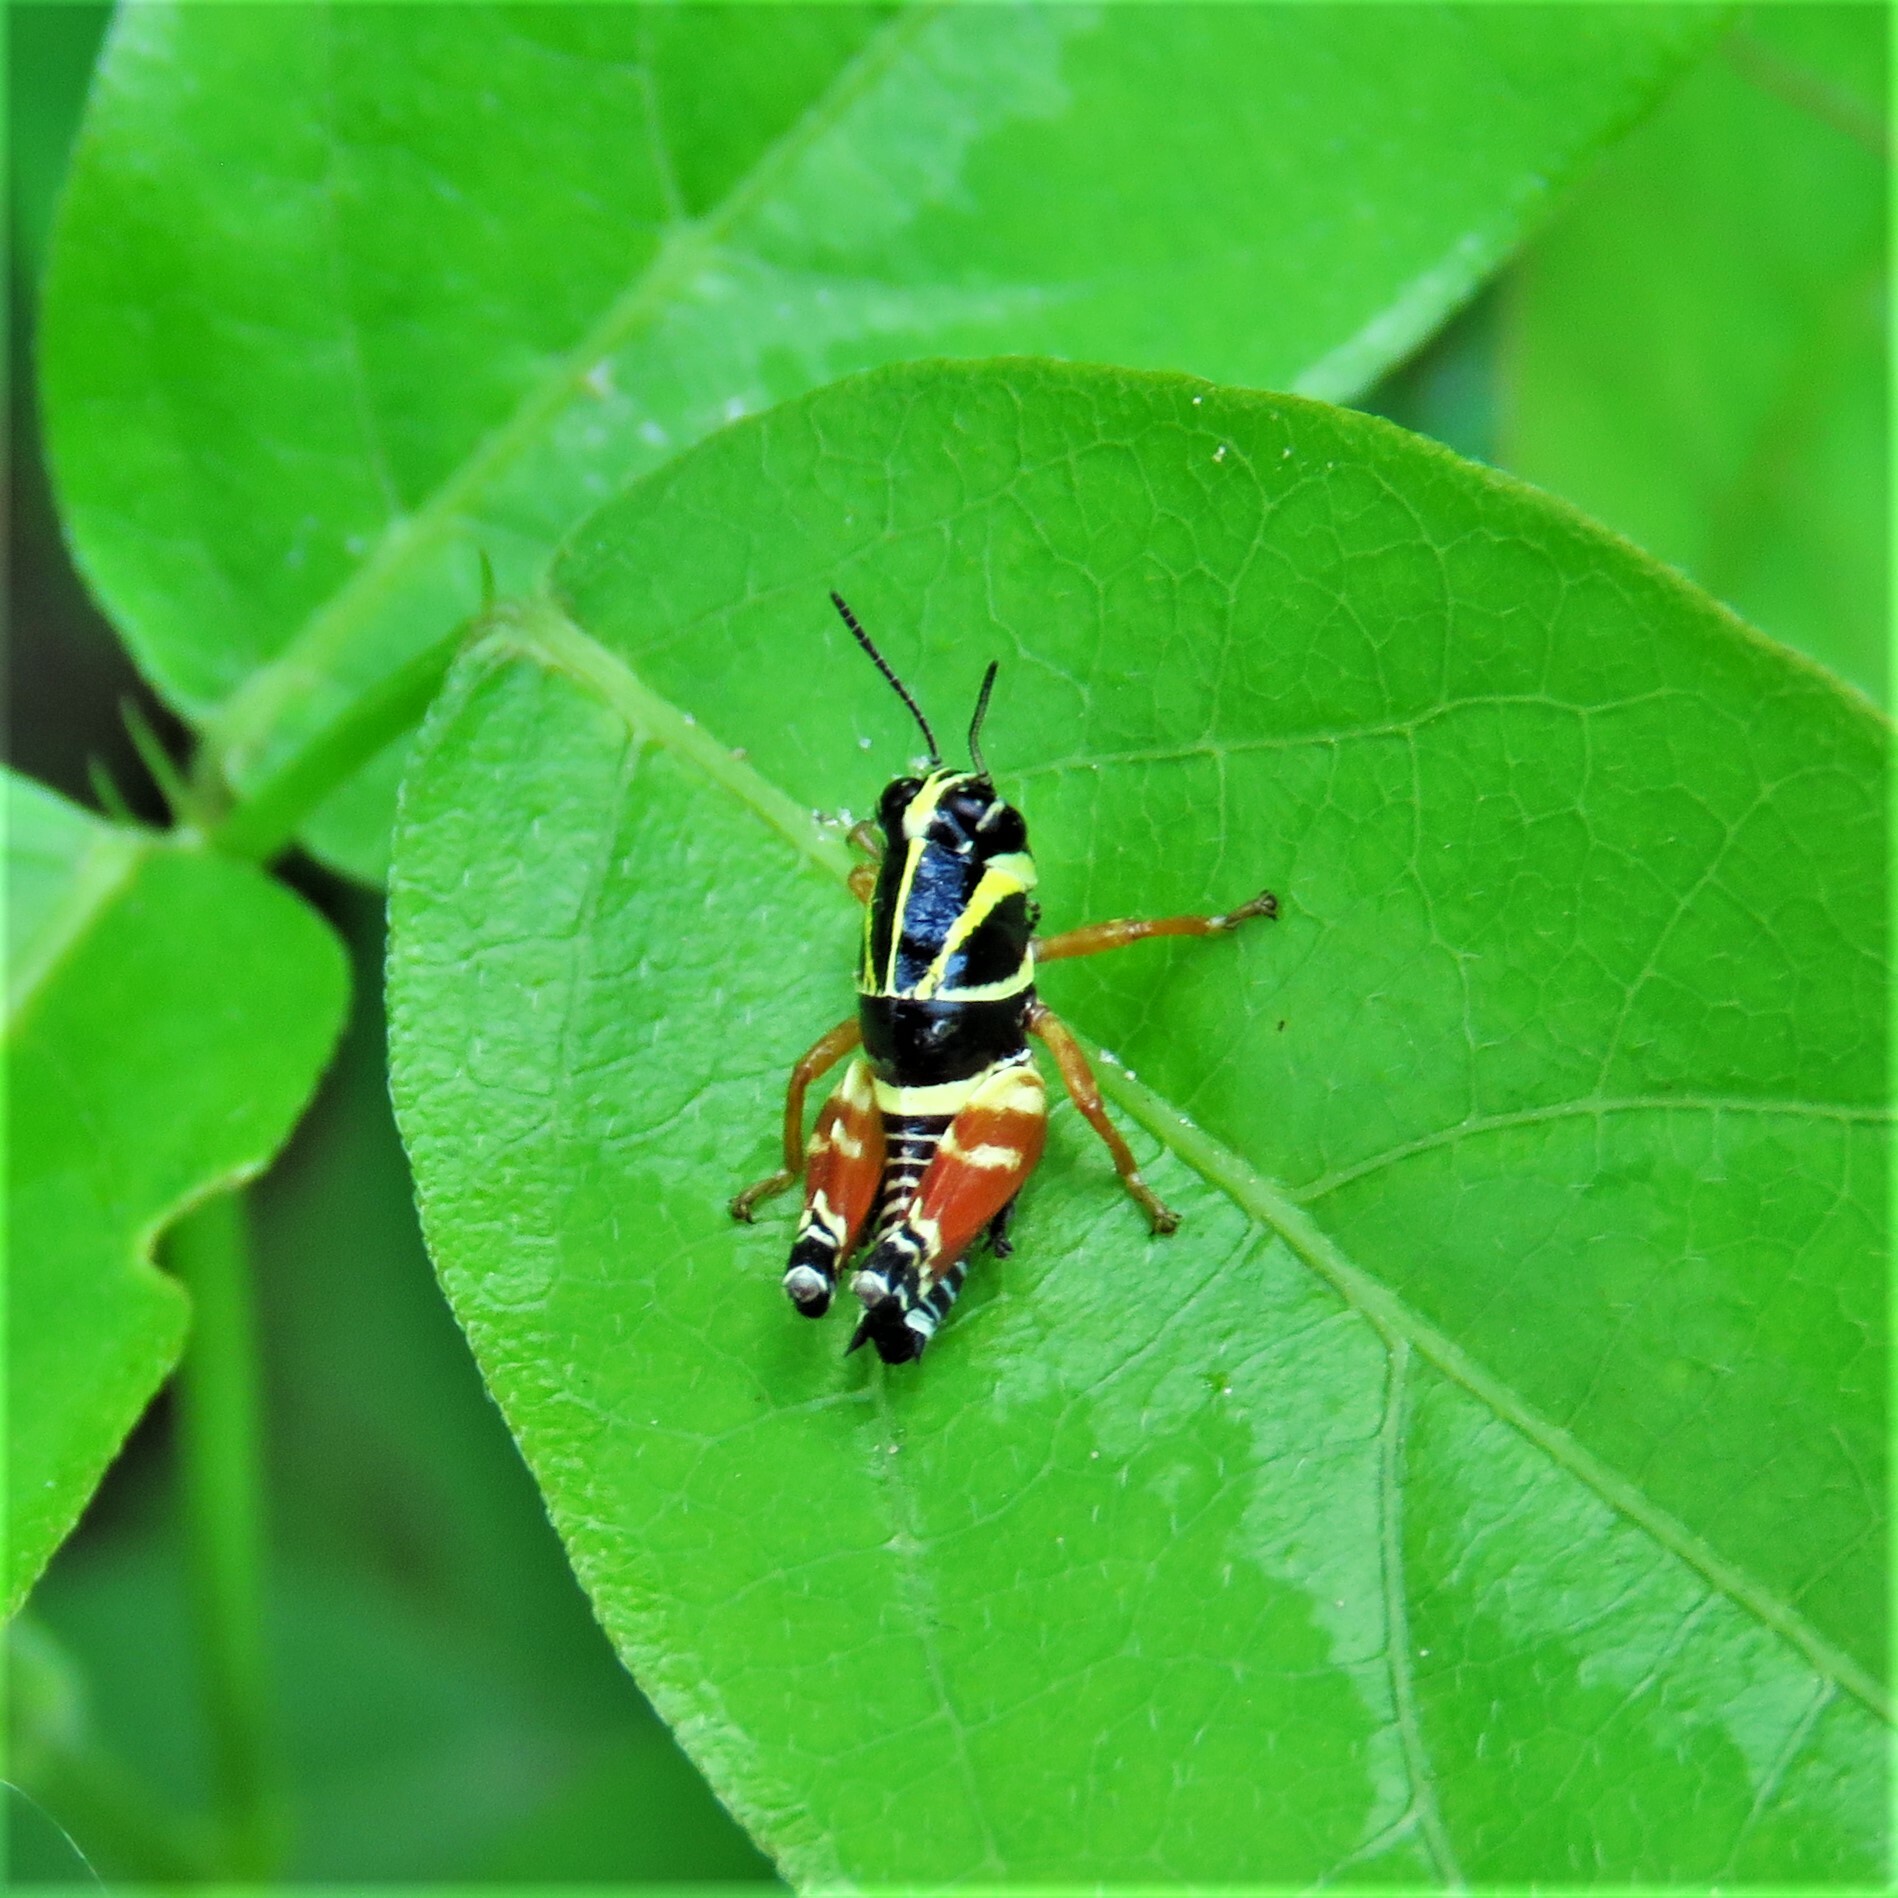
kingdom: Animalia
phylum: Arthropoda
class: Insecta
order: Orthoptera
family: Acrididae
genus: Aidemona
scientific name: Aidemona azteca
